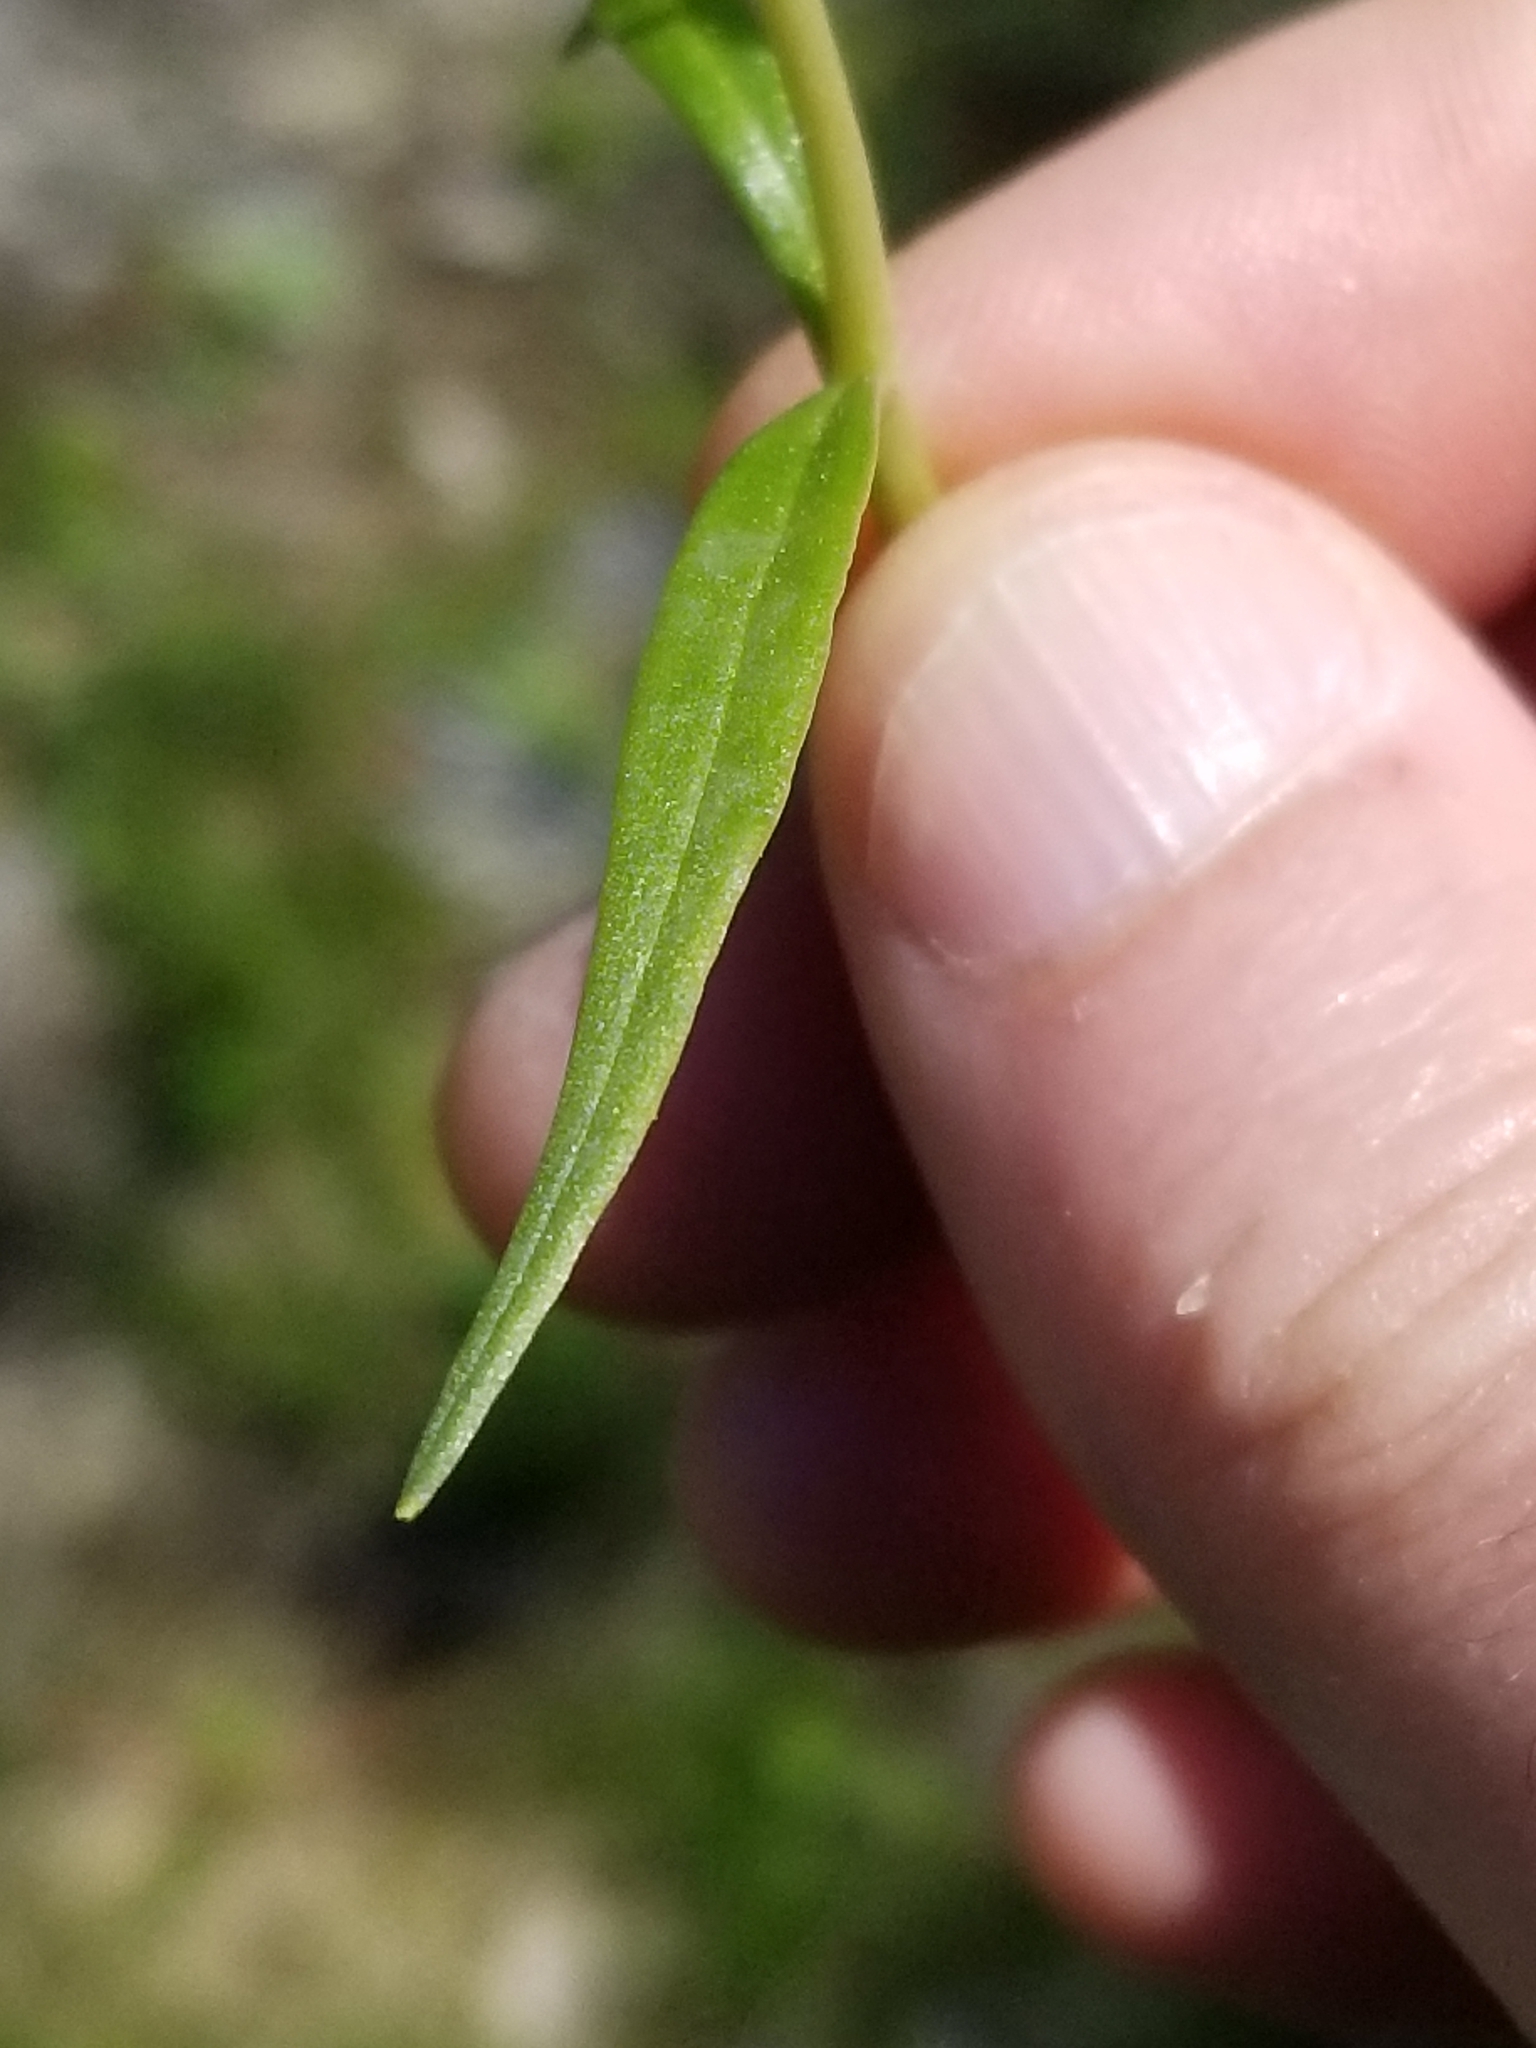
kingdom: Plantae
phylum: Tracheophyta
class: Magnoliopsida
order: Caryophyllales
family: Montiaceae
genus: Claytonia
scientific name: Claytonia virginica
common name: Virginia springbeauty
